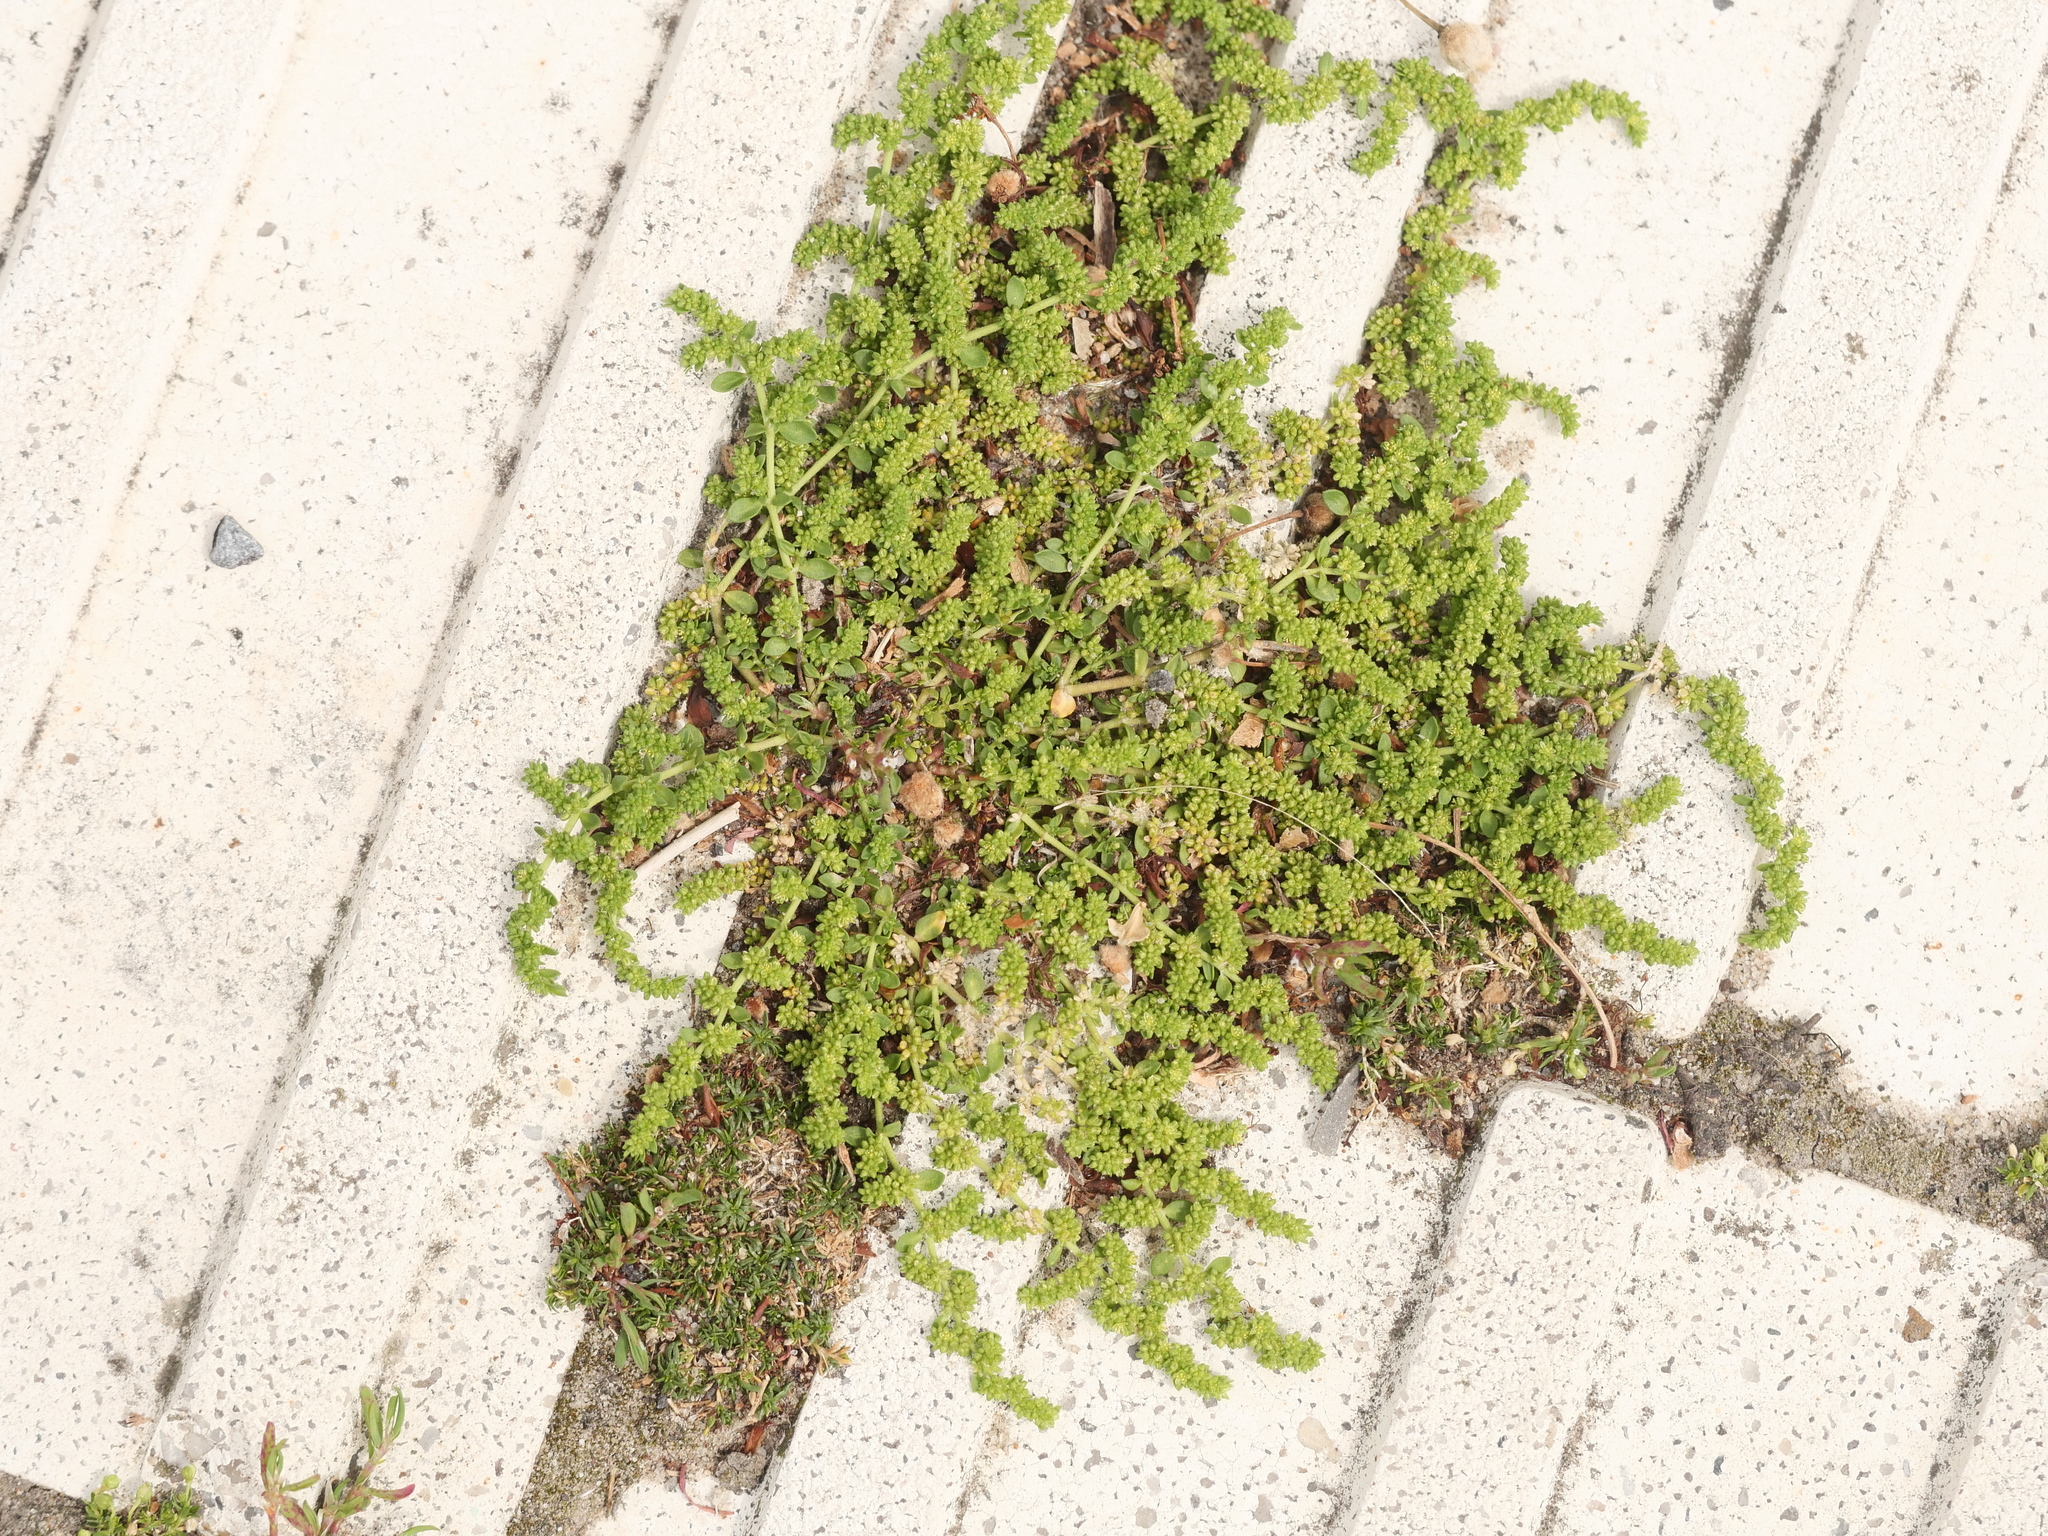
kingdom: Plantae
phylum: Tracheophyta
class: Magnoliopsida
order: Caryophyllales
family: Caryophyllaceae
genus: Herniaria
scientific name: Herniaria glabra
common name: Smooth rupturewort
